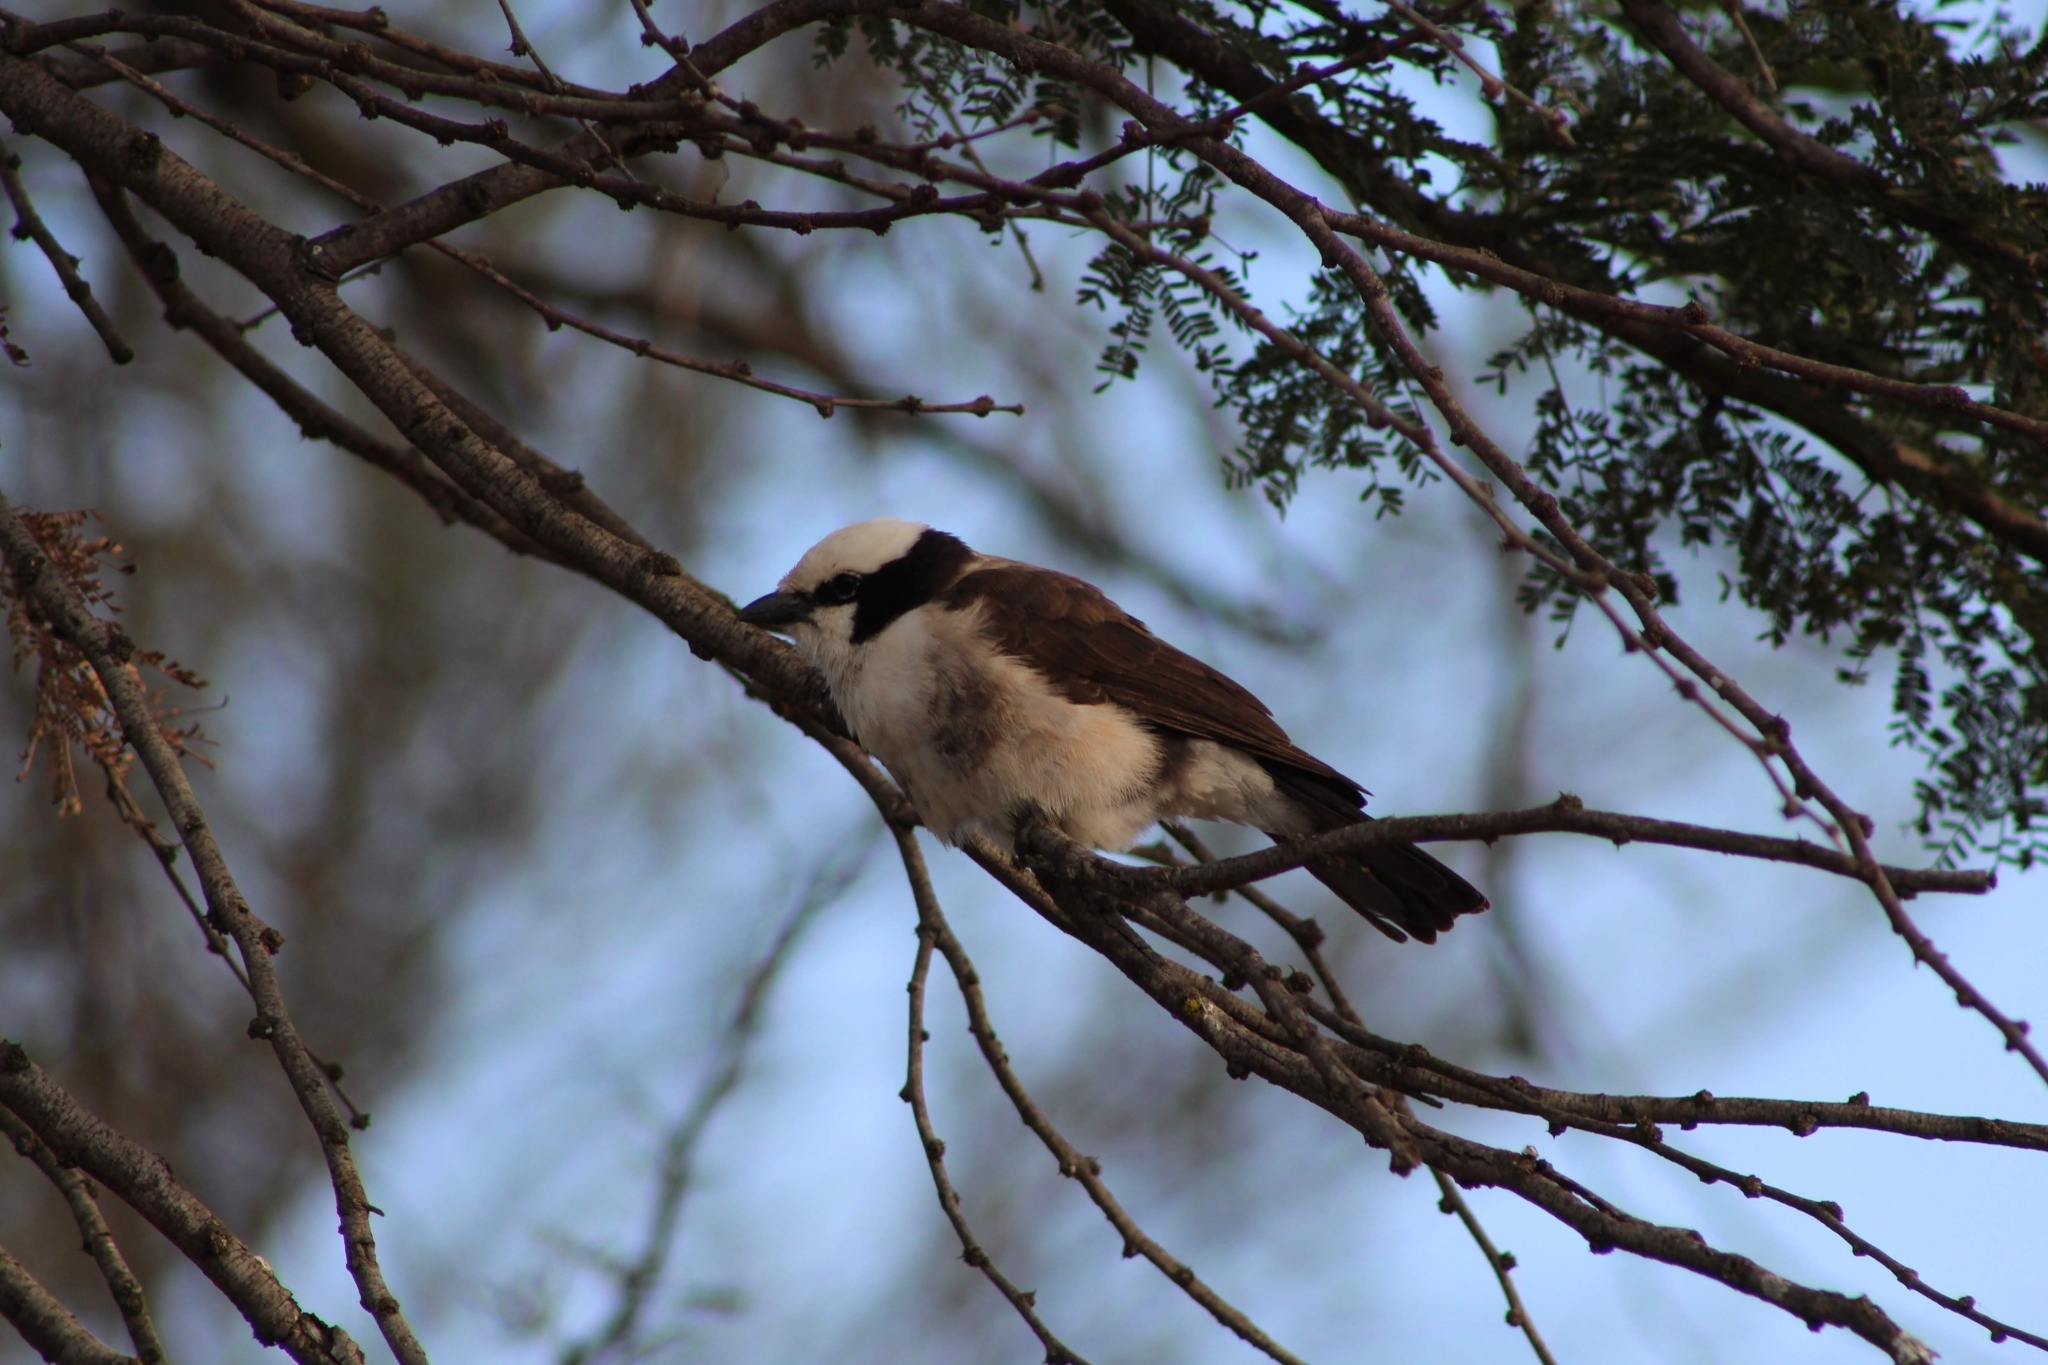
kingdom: Animalia
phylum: Chordata
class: Aves
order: Passeriformes
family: Laniidae
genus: Eurocephalus
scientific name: Eurocephalus ruppelli
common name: Northern white-crowned shrike
